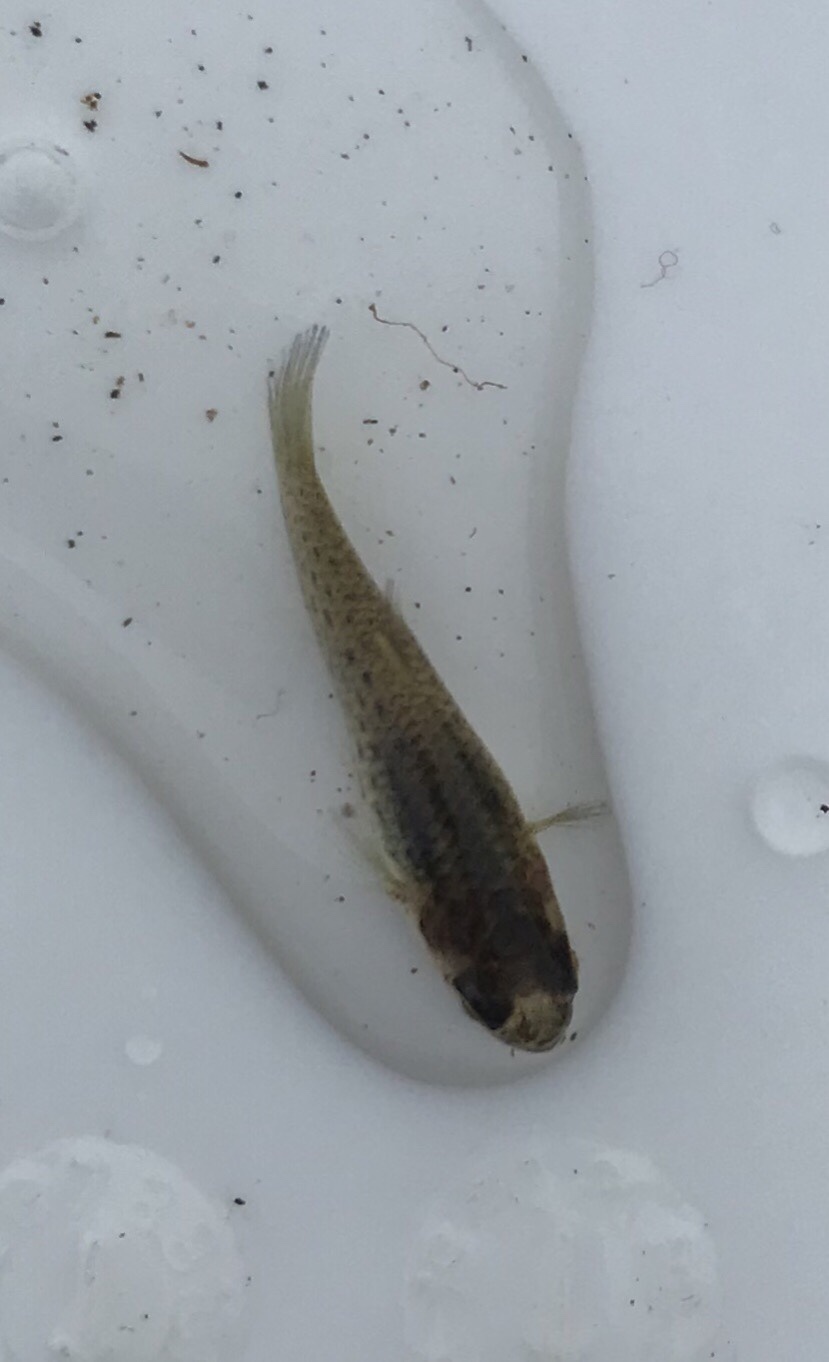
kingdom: Animalia
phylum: Chordata
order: Cyprinodontiformes
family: Anablepidae
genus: Jenynsia
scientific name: Jenynsia lineata
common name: Onesided livebearer
